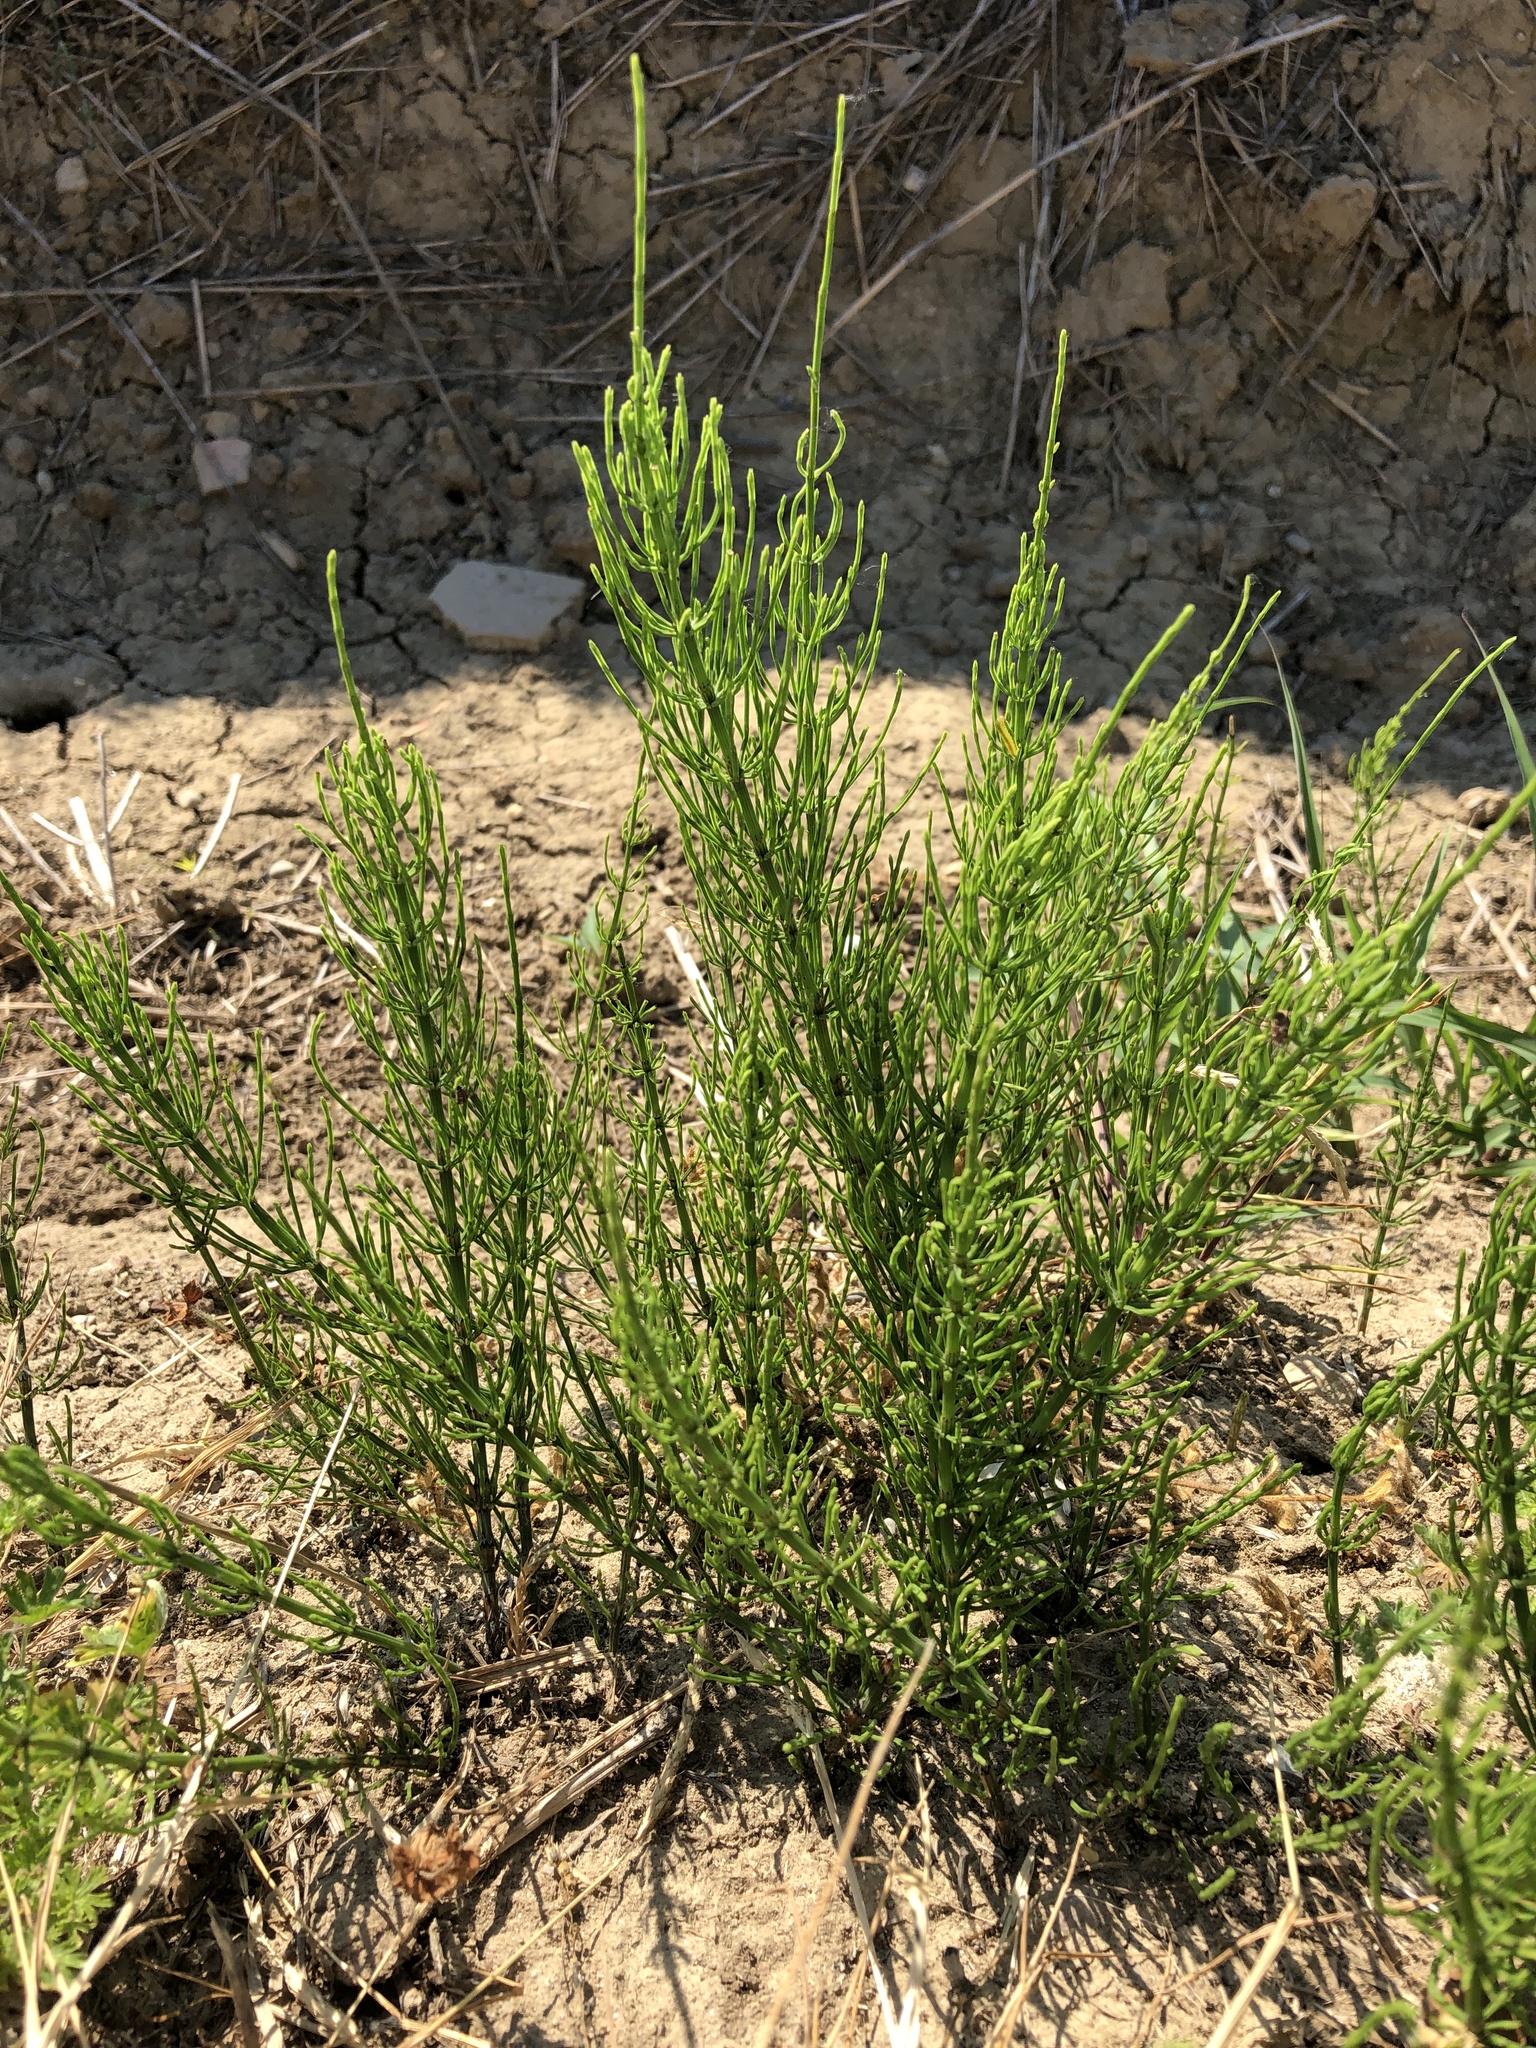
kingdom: Plantae
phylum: Tracheophyta
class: Polypodiopsida
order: Equisetales
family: Equisetaceae
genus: Equisetum
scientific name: Equisetum arvense
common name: Field horsetail
